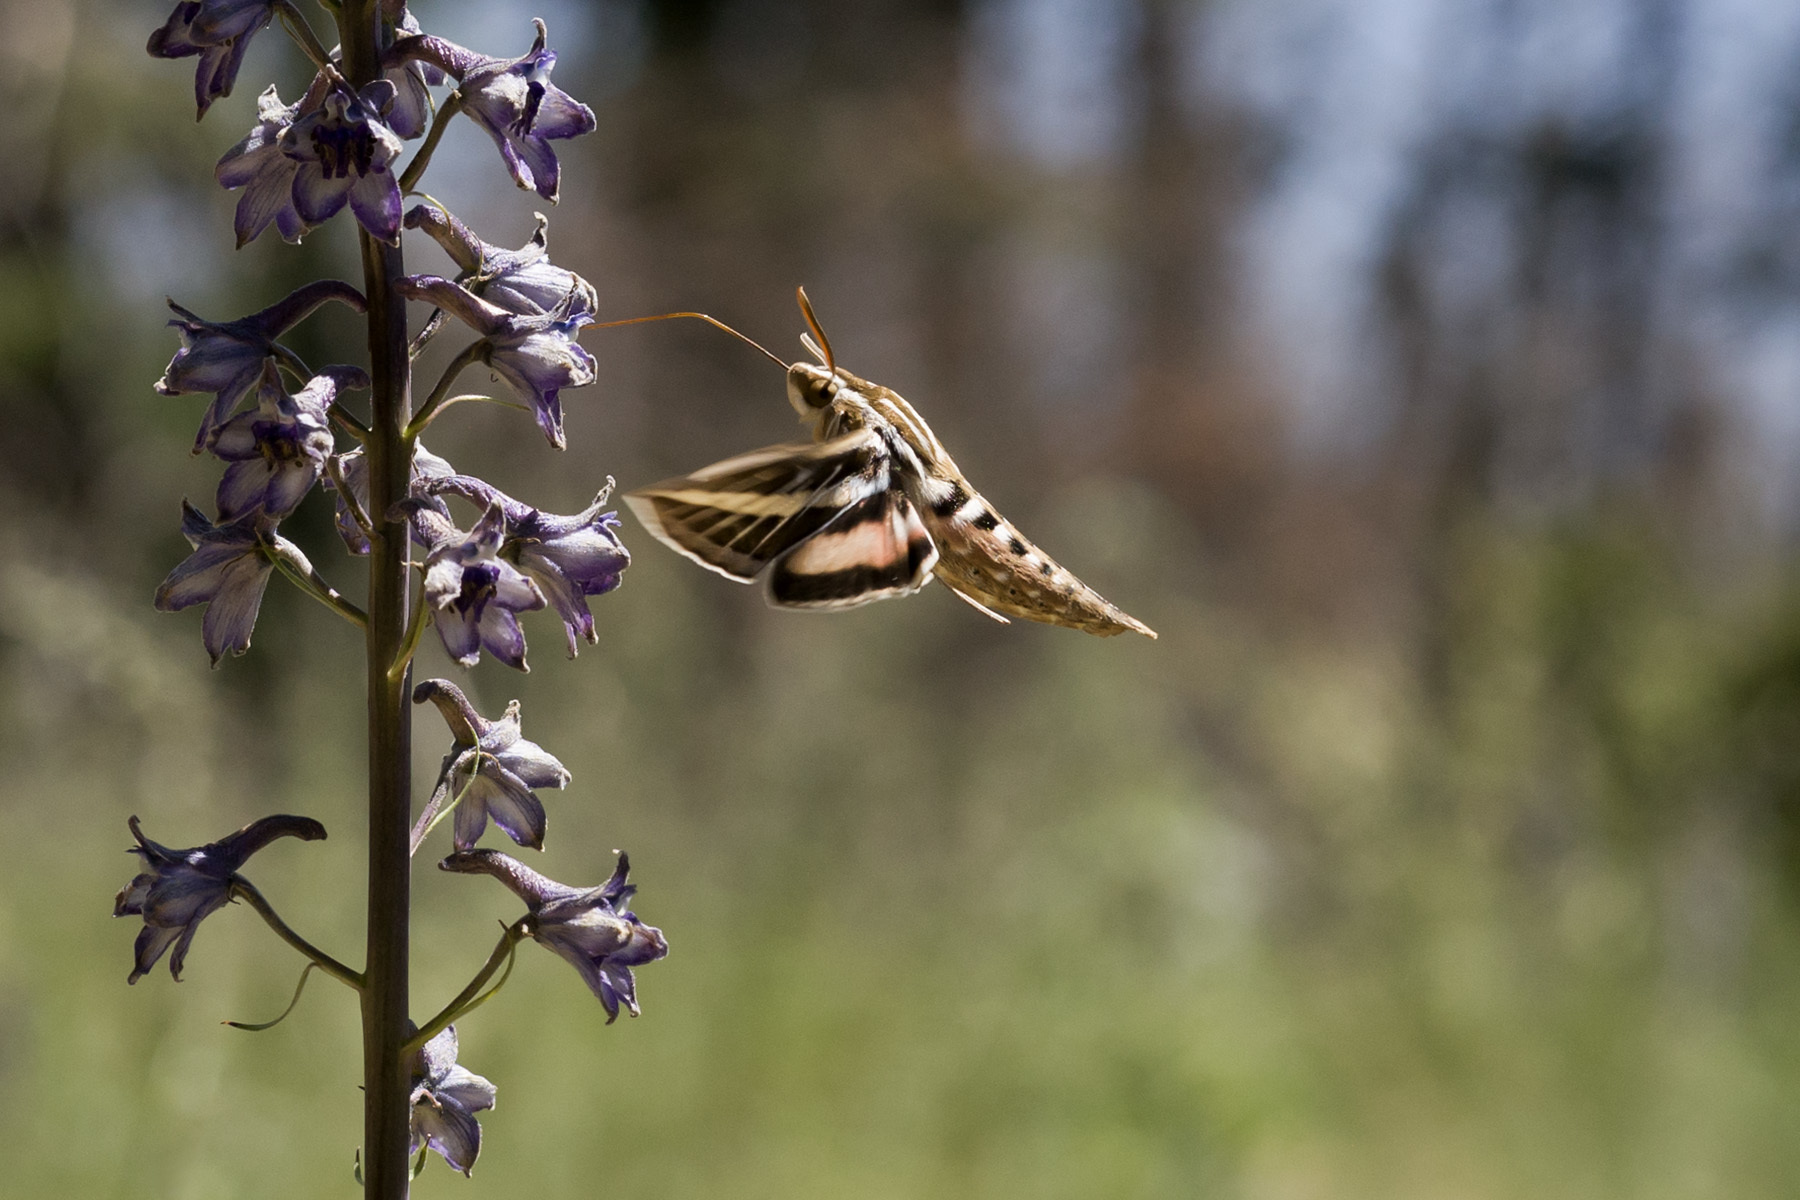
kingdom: Animalia
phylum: Arthropoda
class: Insecta
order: Lepidoptera
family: Sphingidae
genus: Hyles
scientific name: Hyles lineata
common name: White-lined sphinx
